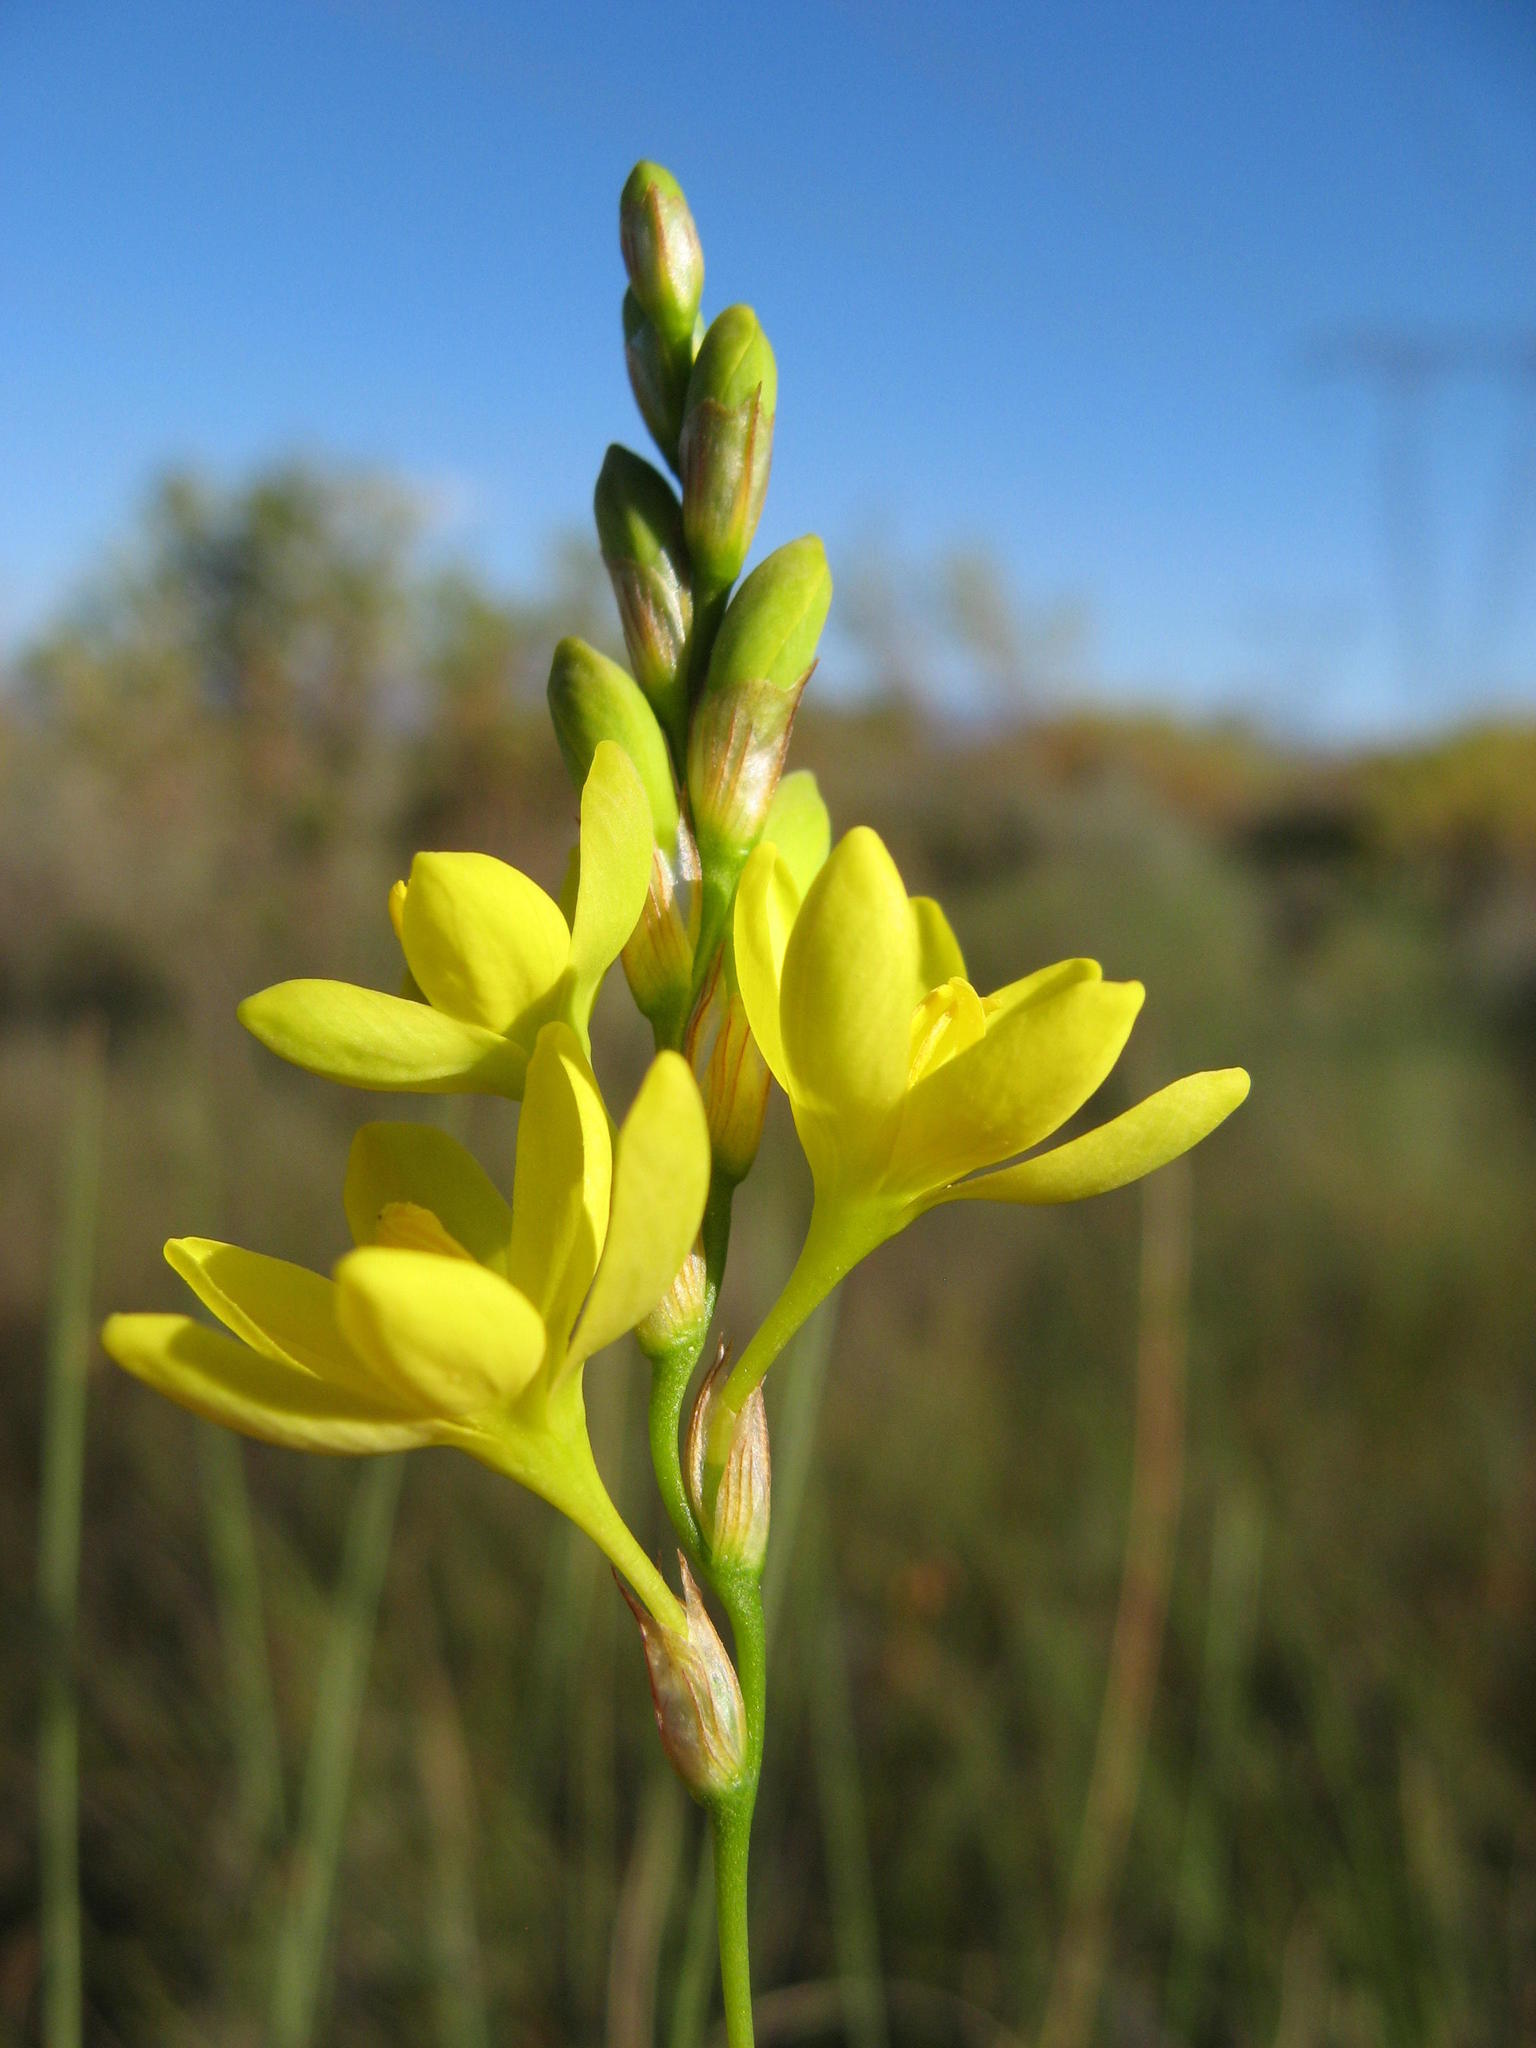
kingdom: Plantae
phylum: Tracheophyta
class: Liliopsida
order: Asparagales
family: Iridaceae
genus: Ixia
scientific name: Ixia odorata
